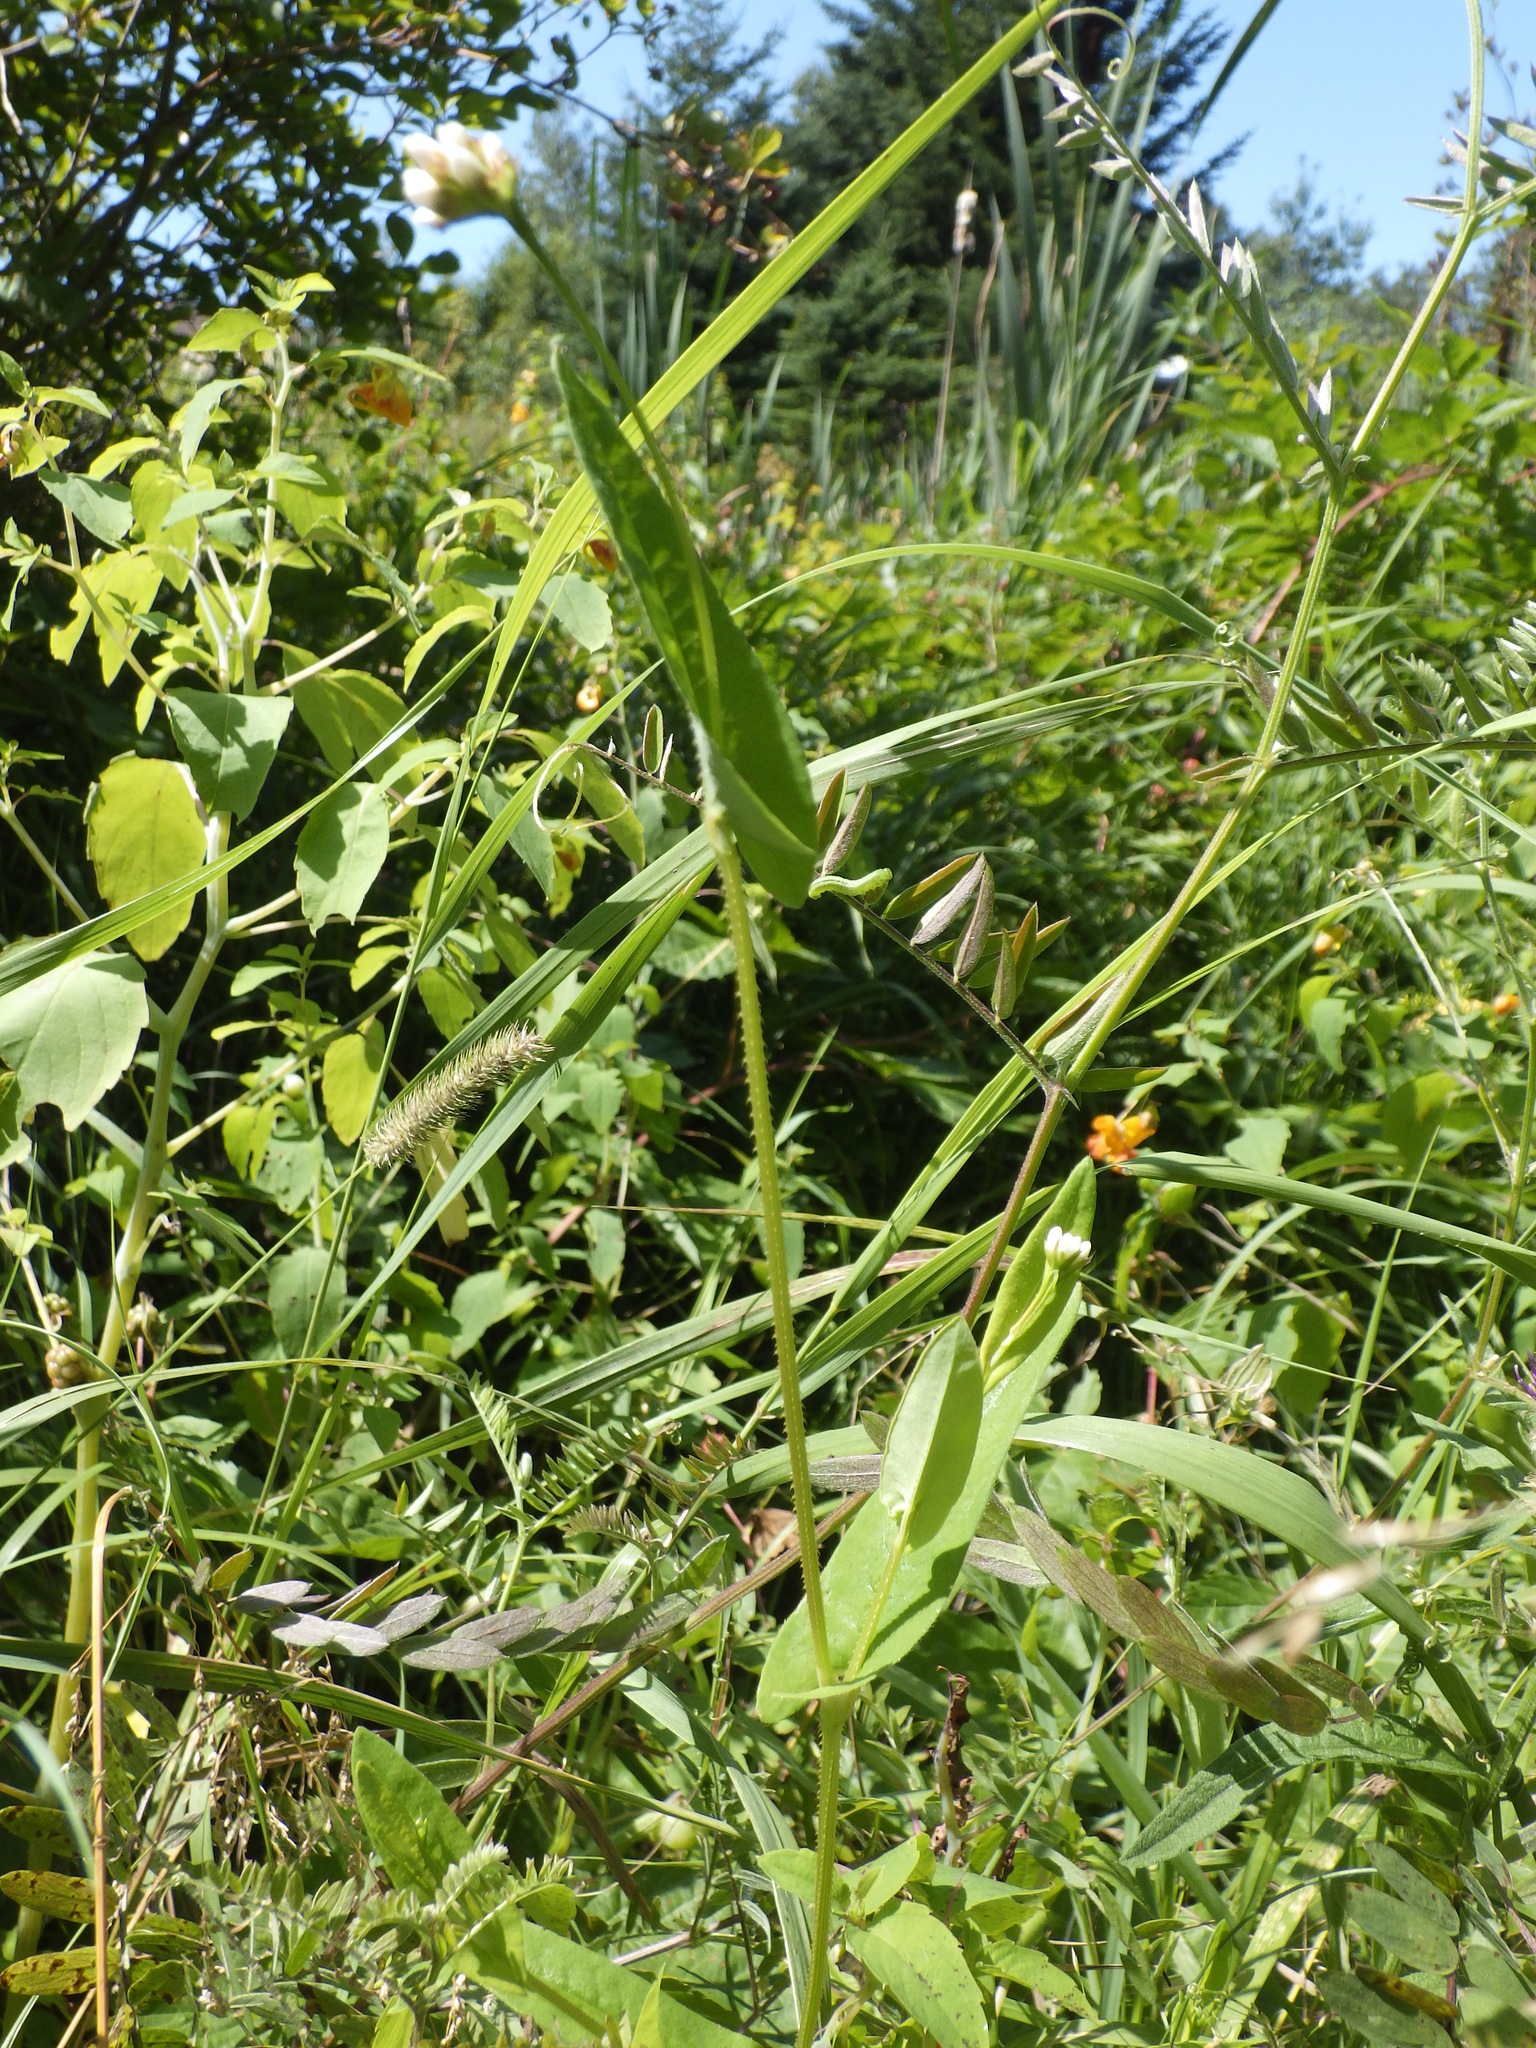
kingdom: Plantae
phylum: Tracheophyta
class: Magnoliopsida
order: Caryophyllales
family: Polygonaceae
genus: Persicaria
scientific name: Persicaria sagittata
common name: American tearthumb
